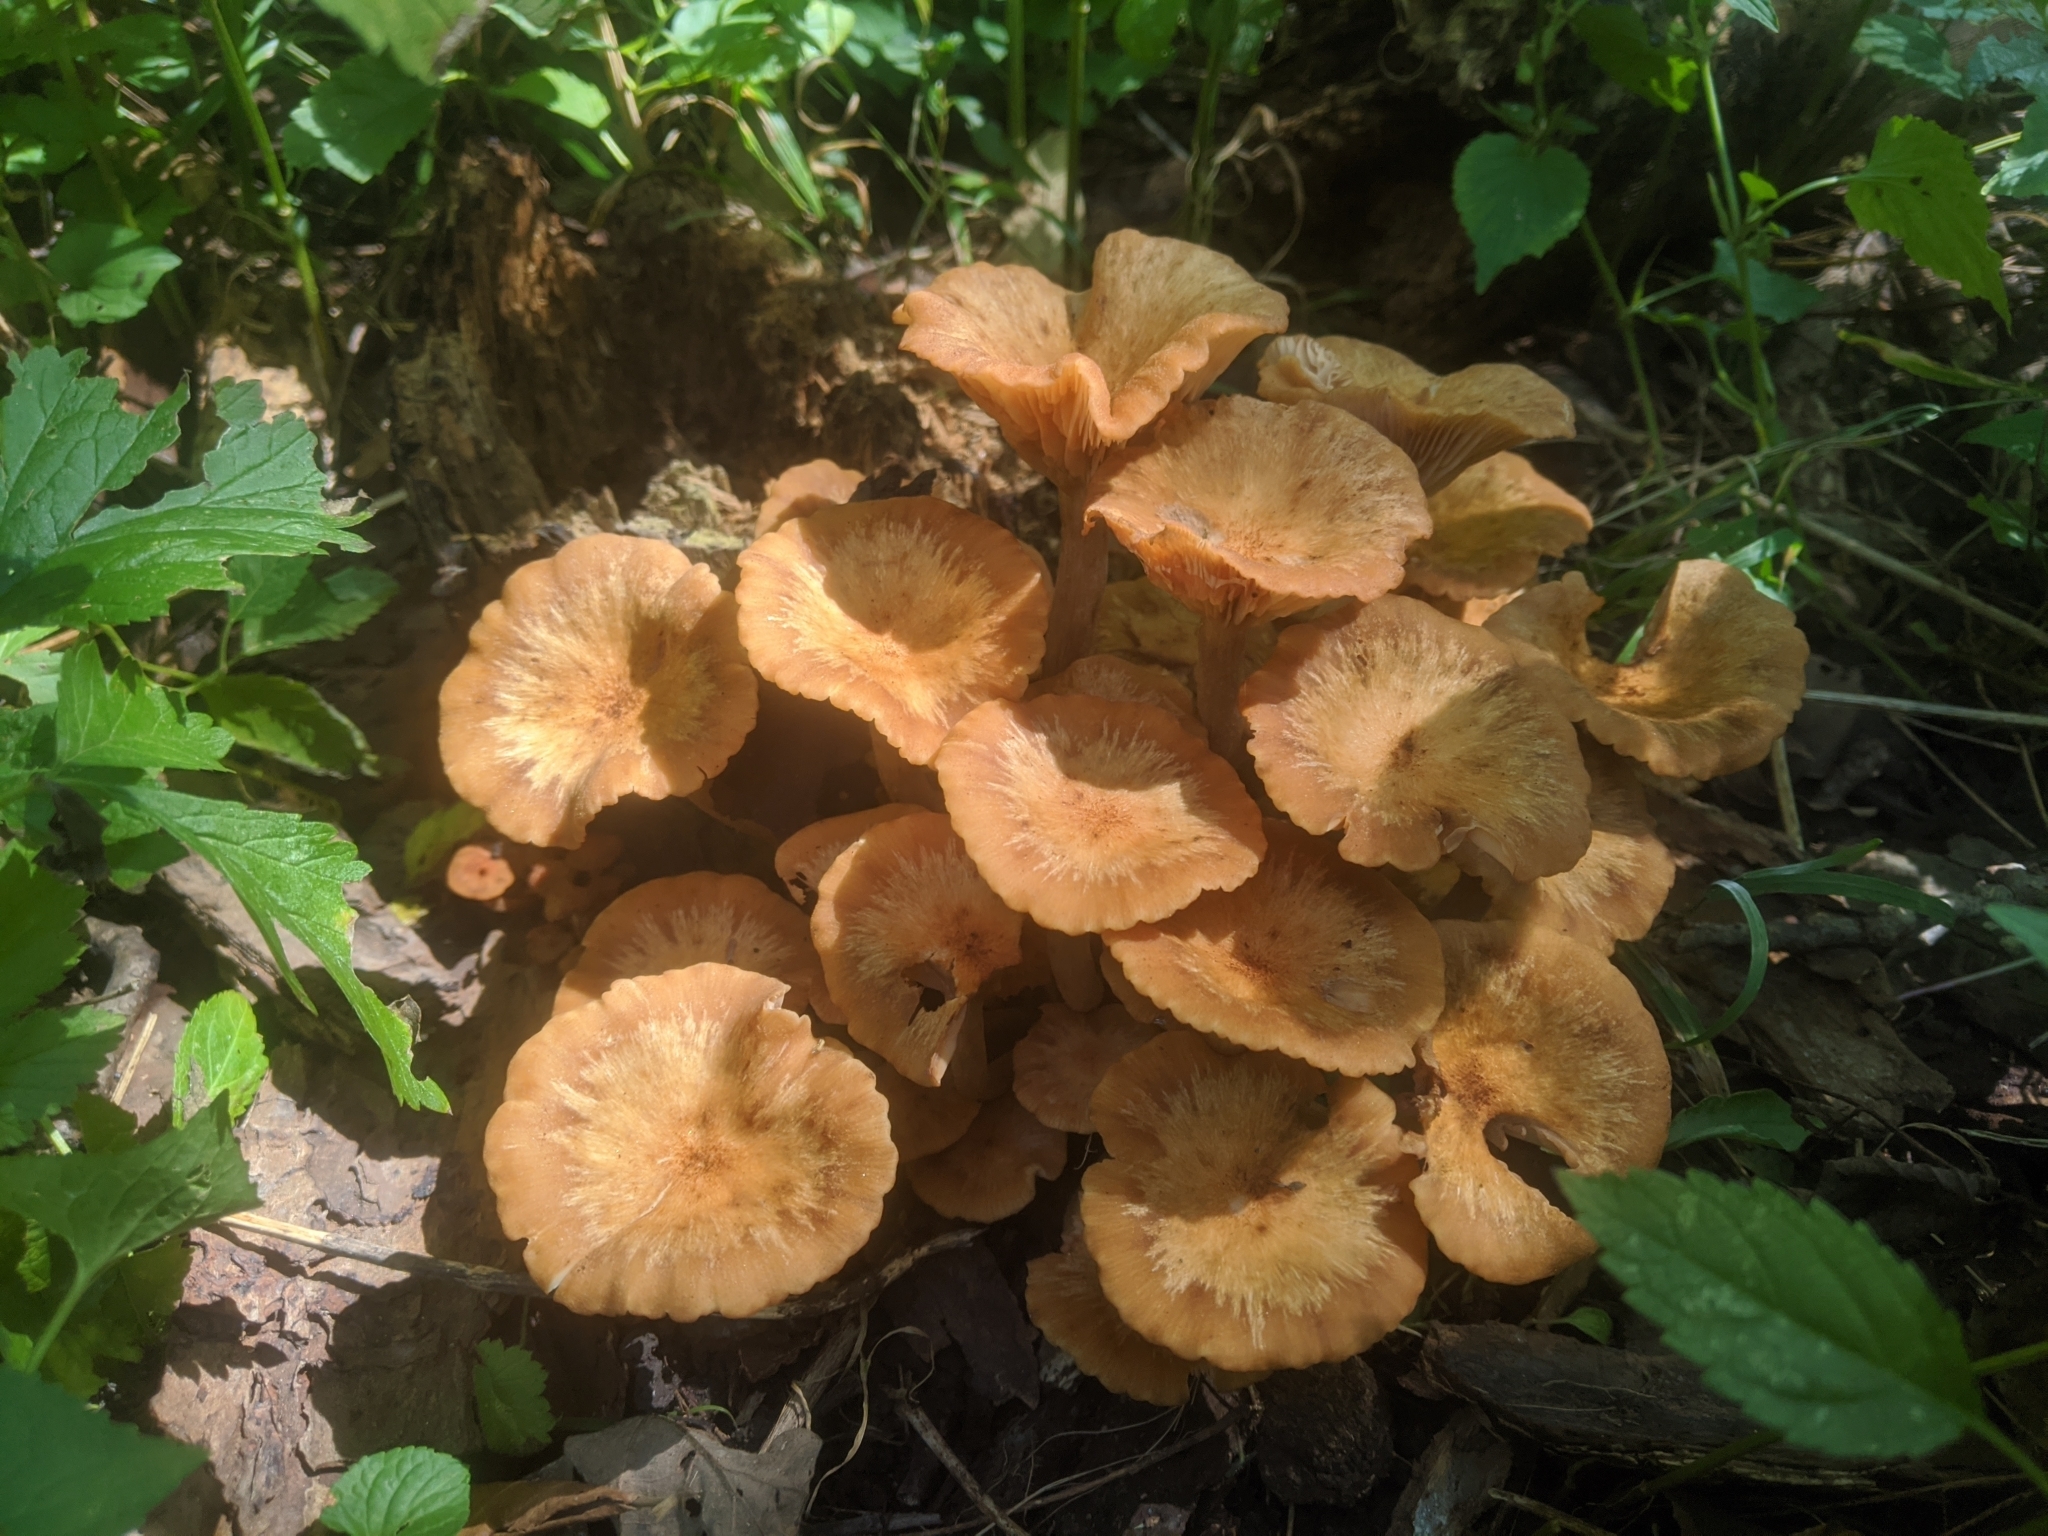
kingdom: Fungi
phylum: Basidiomycota
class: Agaricomycetes
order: Agaricales
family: Physalacriaceae
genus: Desarmillaria
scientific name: Desarmillaria caespitosa
